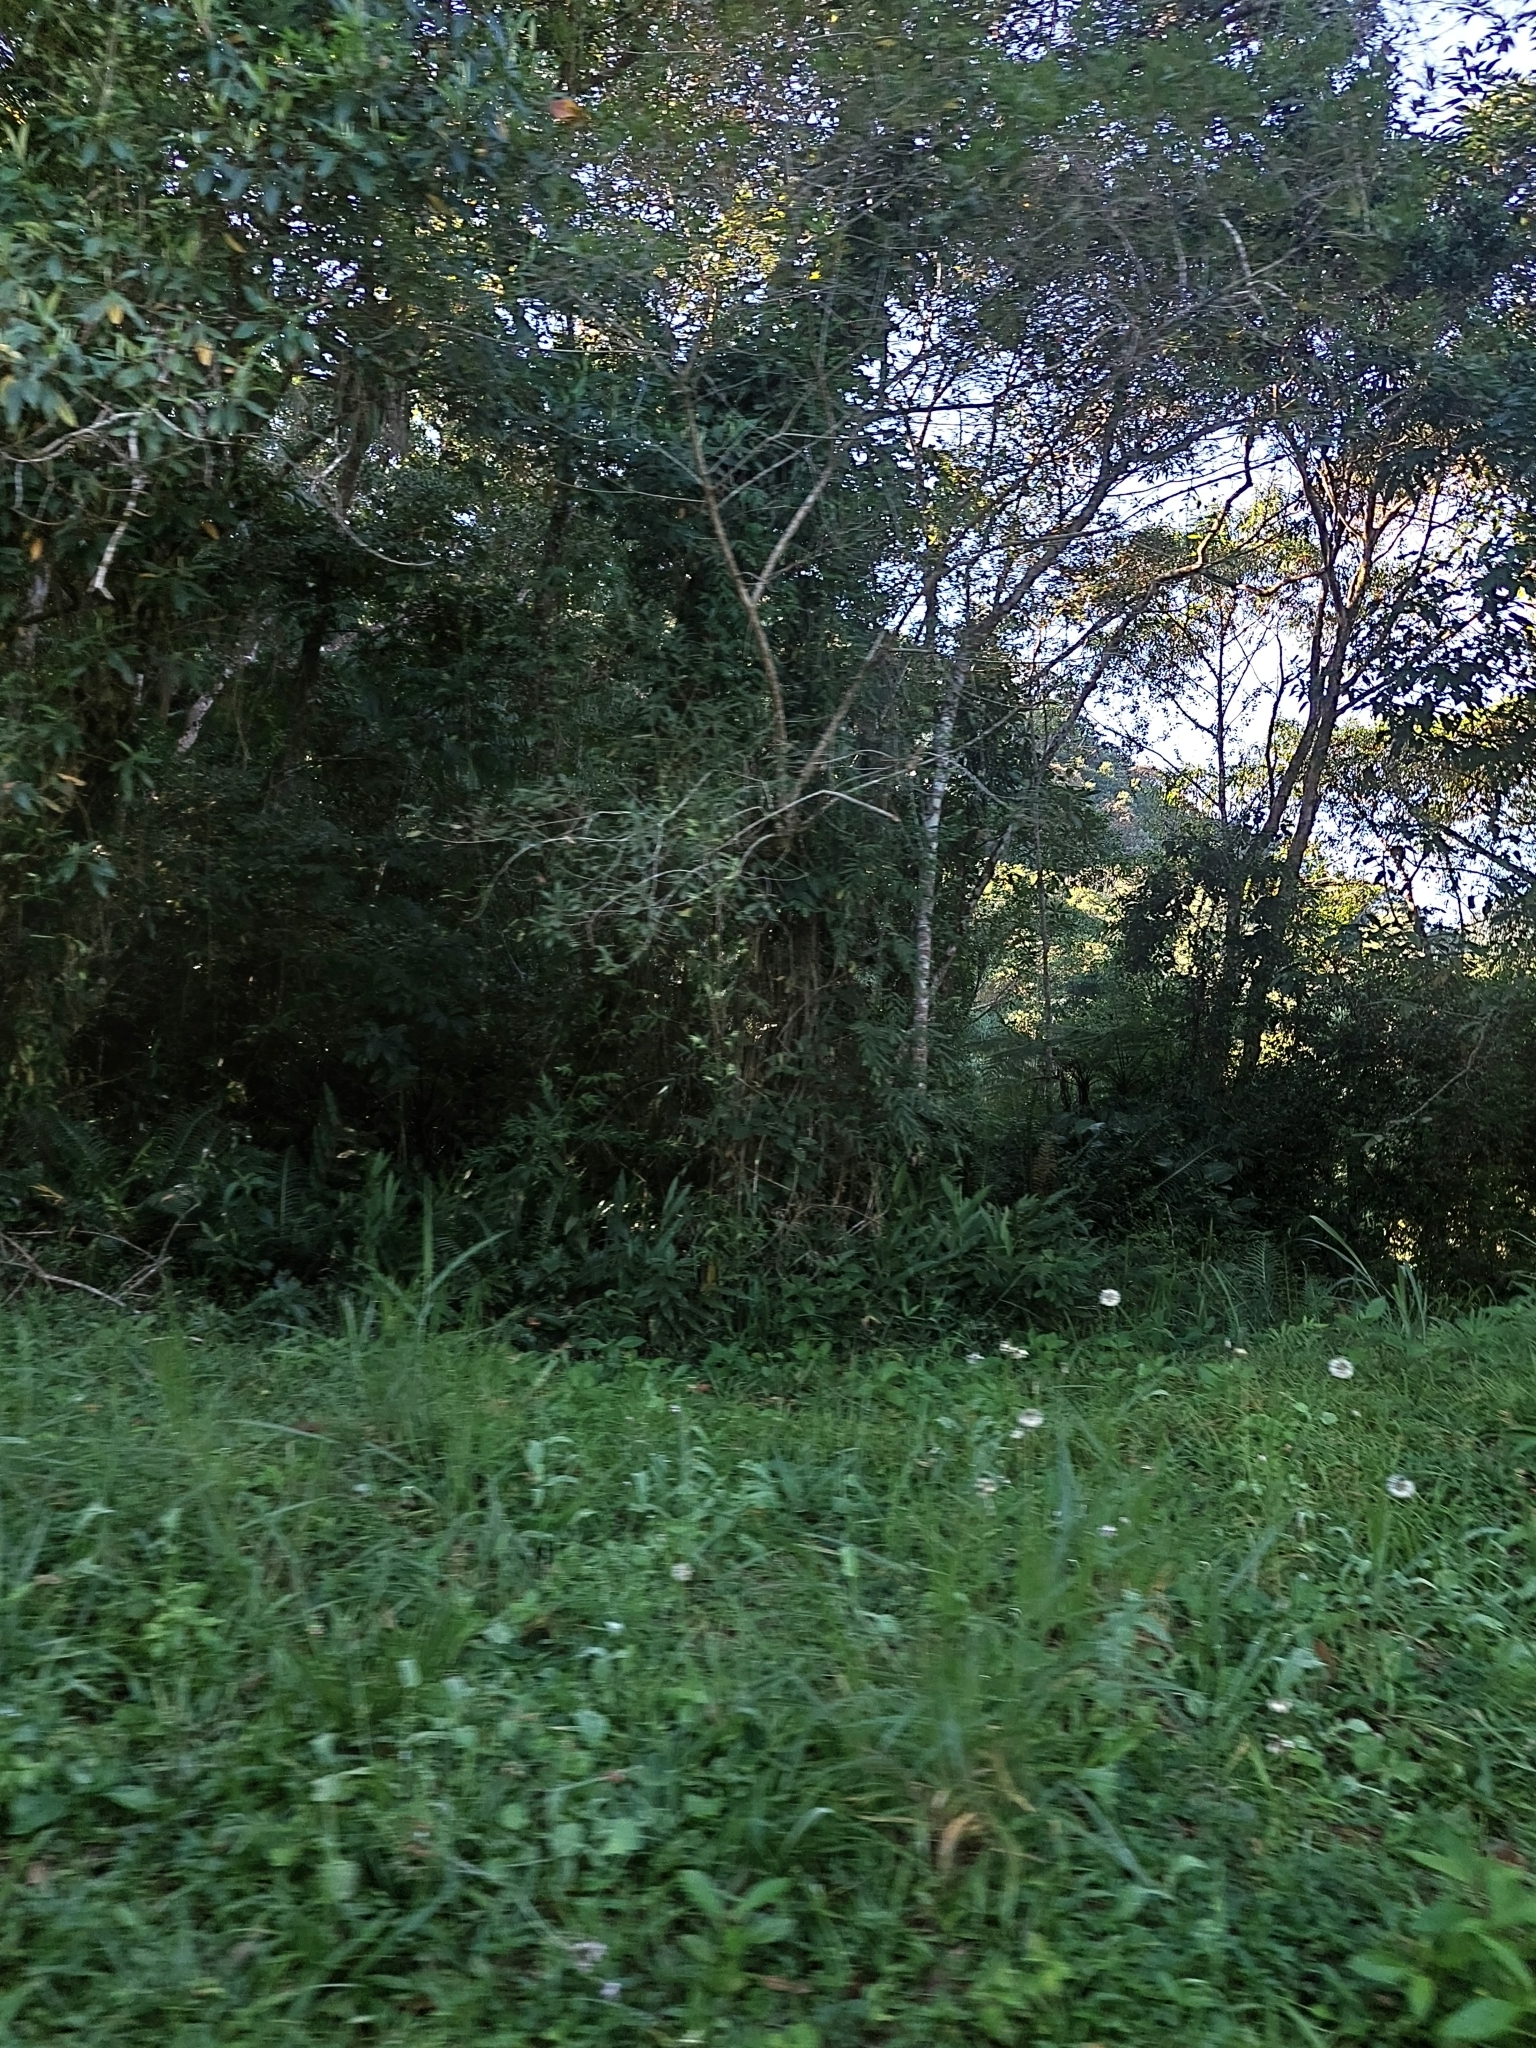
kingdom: Plantae
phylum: Tracheophyta
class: Liliopsida
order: Zingiberales
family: Zingiberaceae
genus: Hedychium
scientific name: Hedychium coronarium
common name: White garland-lily
